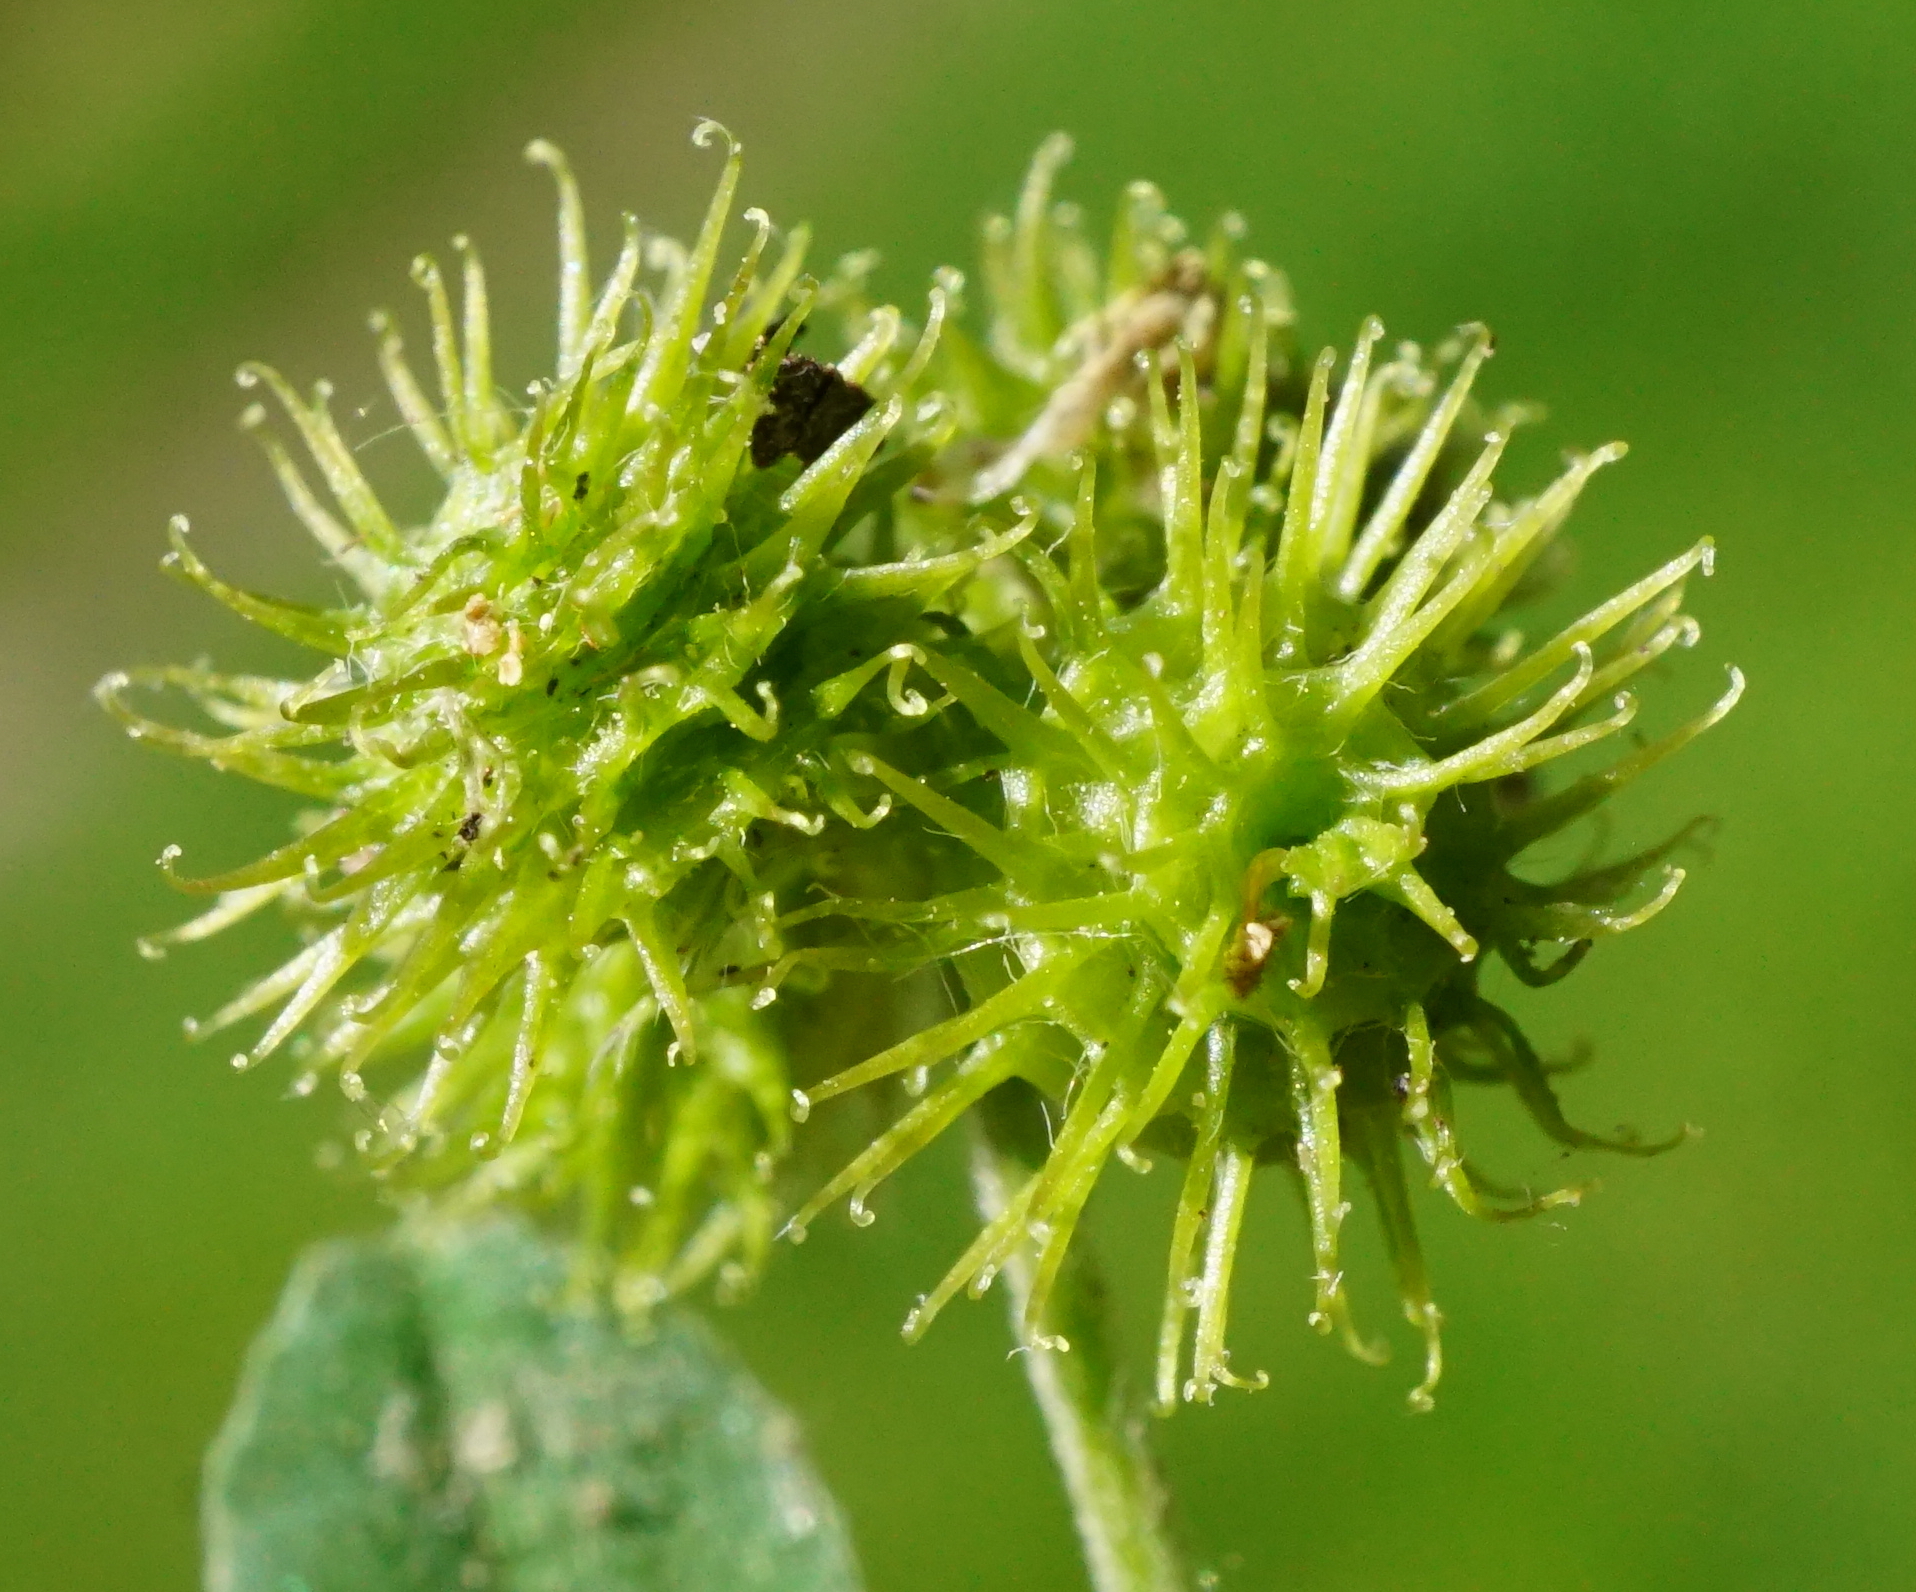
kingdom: Plantae
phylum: Tracheophyta
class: Magnoliopsida
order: Fabales
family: Fabaceae
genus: Medicago
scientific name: Medicago minima
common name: Little bur-clover
